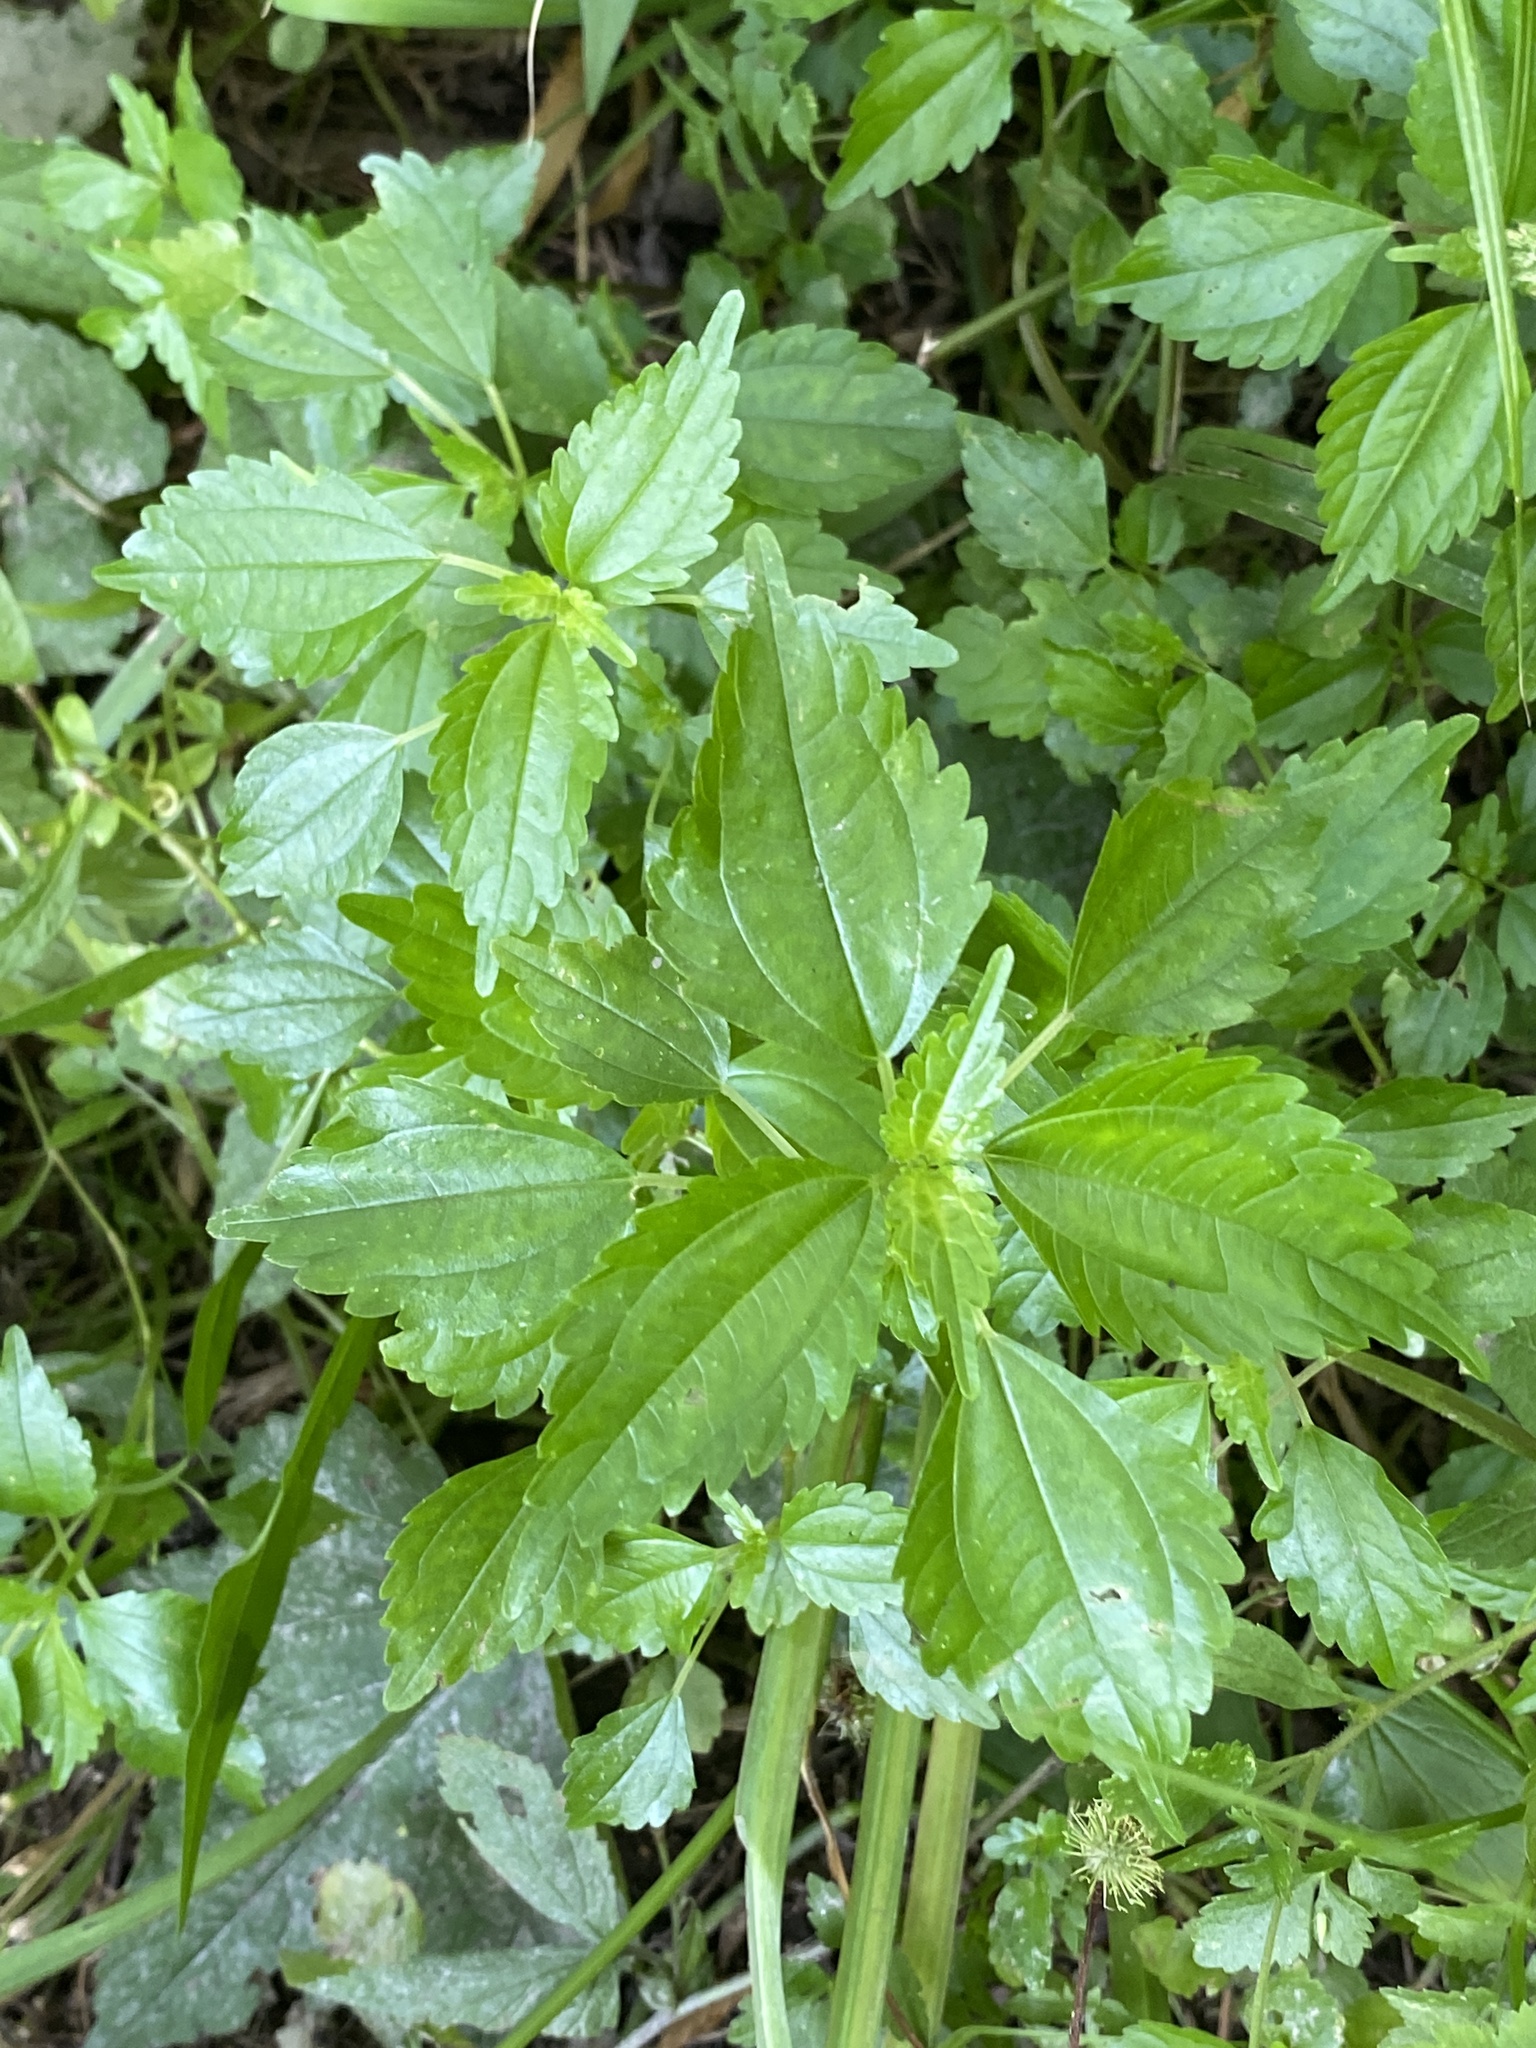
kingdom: Plantae
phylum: Tracheophyta
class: Magnoliopsida
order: Rosales
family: Urticaceae
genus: Pilea
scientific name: Pilea pumila
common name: Clearweed
